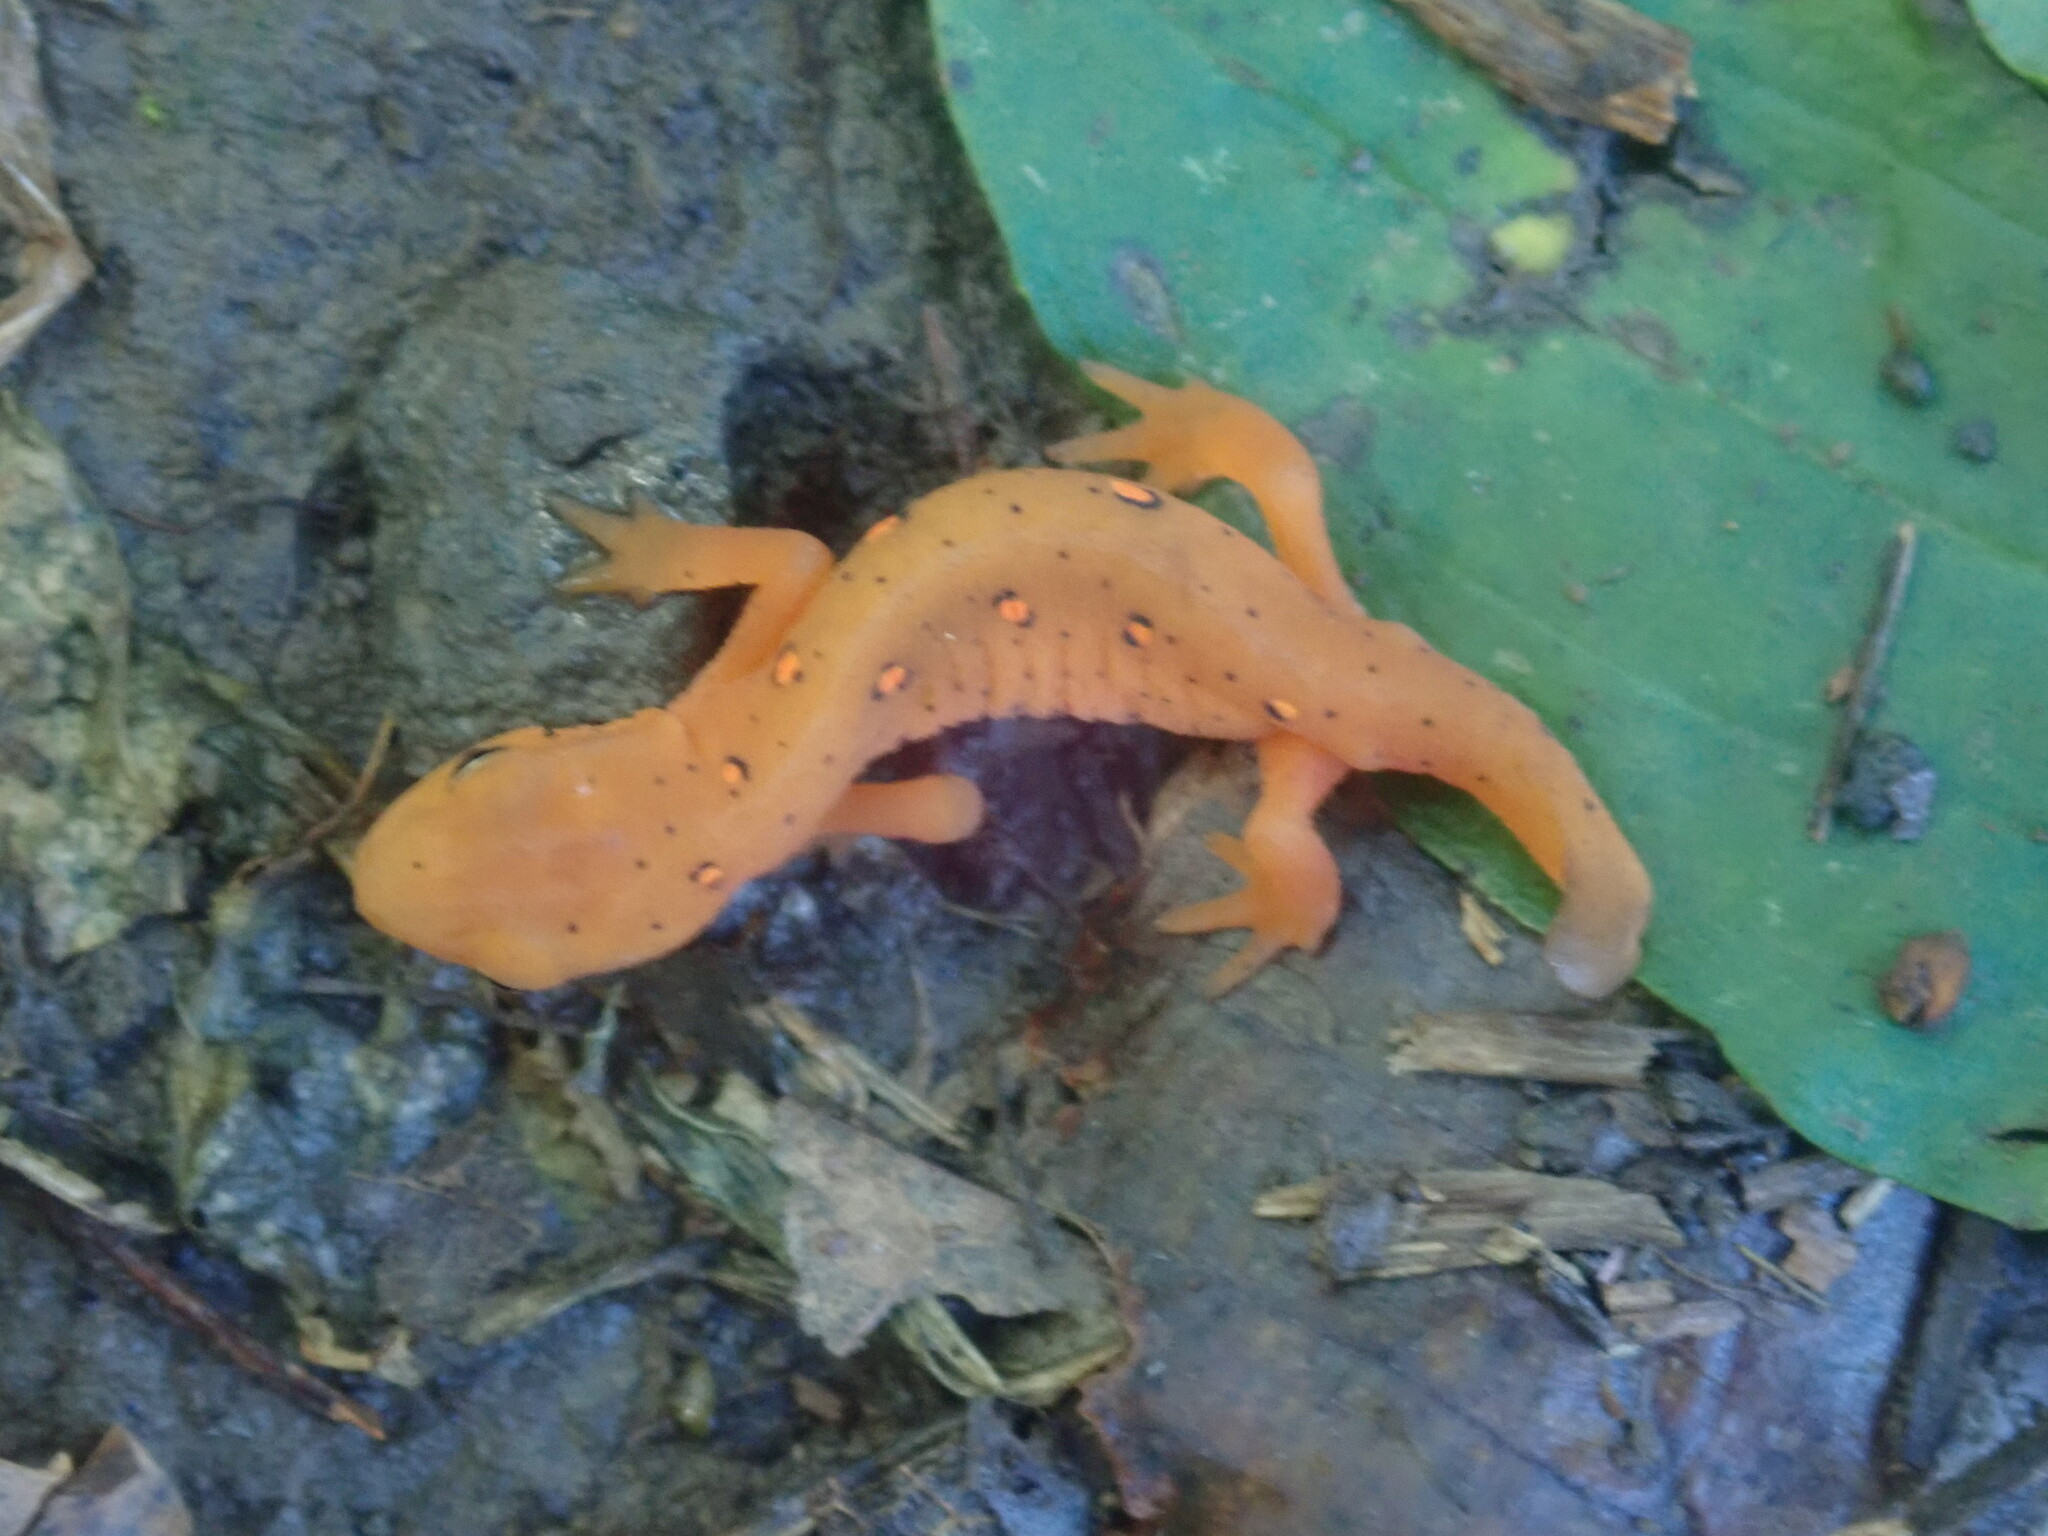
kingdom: Animalia
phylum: Chordata
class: Amphibia
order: Caudata
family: Salamandridae
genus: Notophthalmus
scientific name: Notophthalmus viridescens
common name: Eastern newt
